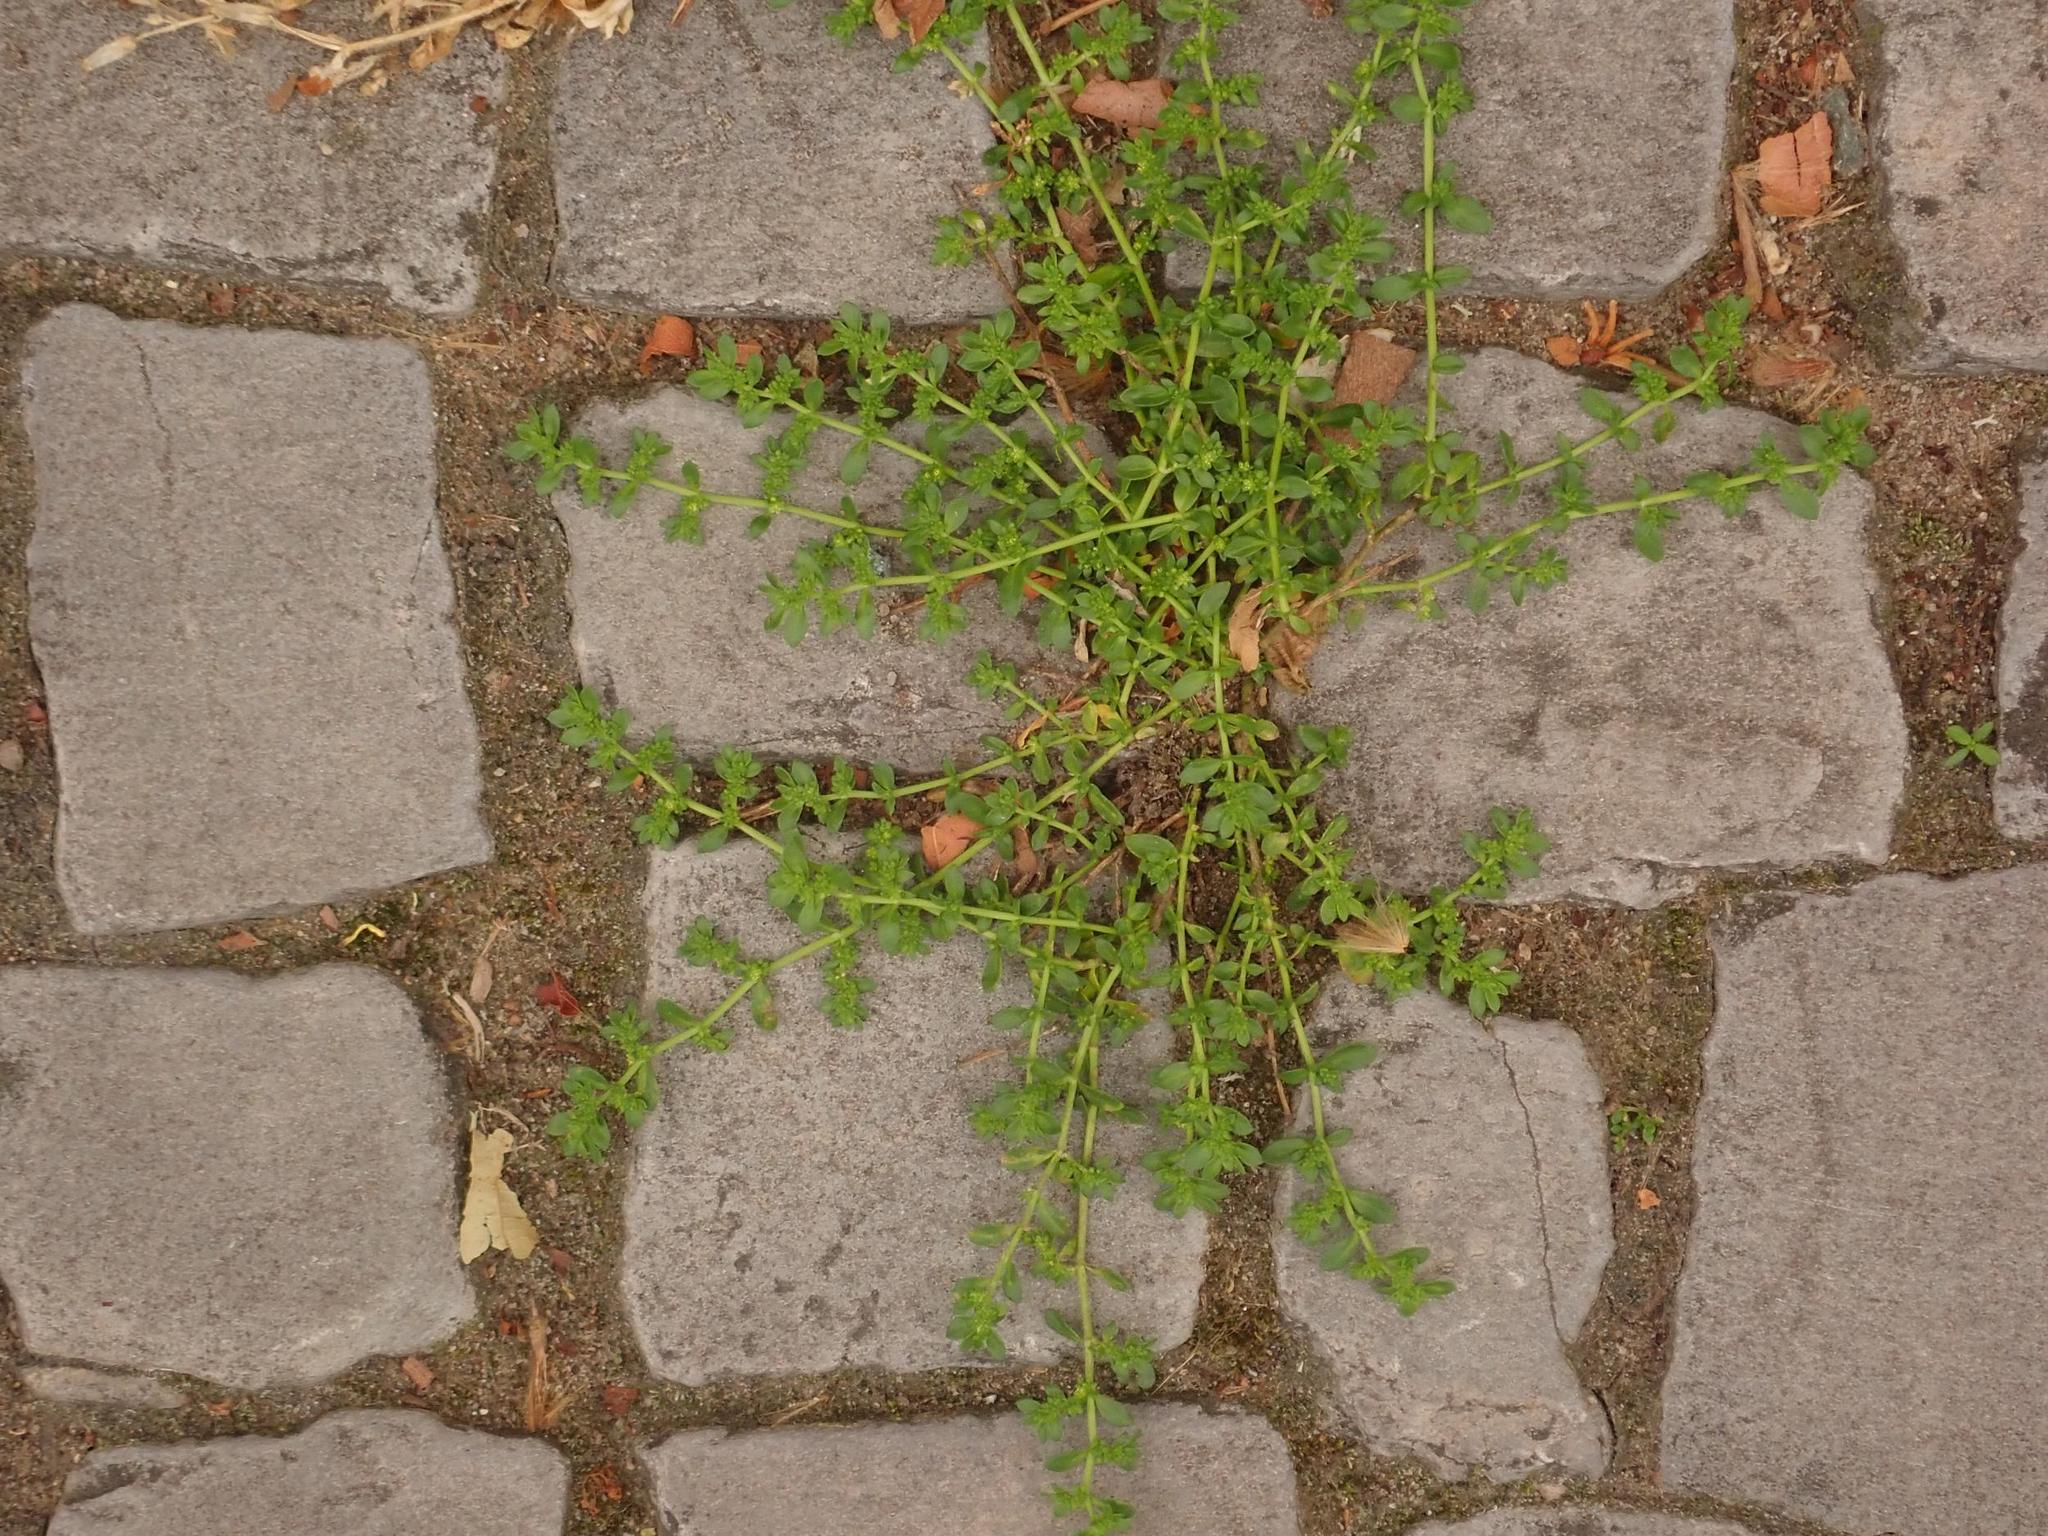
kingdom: Plantae
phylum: Tracheophyta
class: Magnoliopsida
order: Caryophyllales
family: Caryophyllaceae
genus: Herniaria
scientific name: Herniaria glabra
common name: Smooth rupturewort
